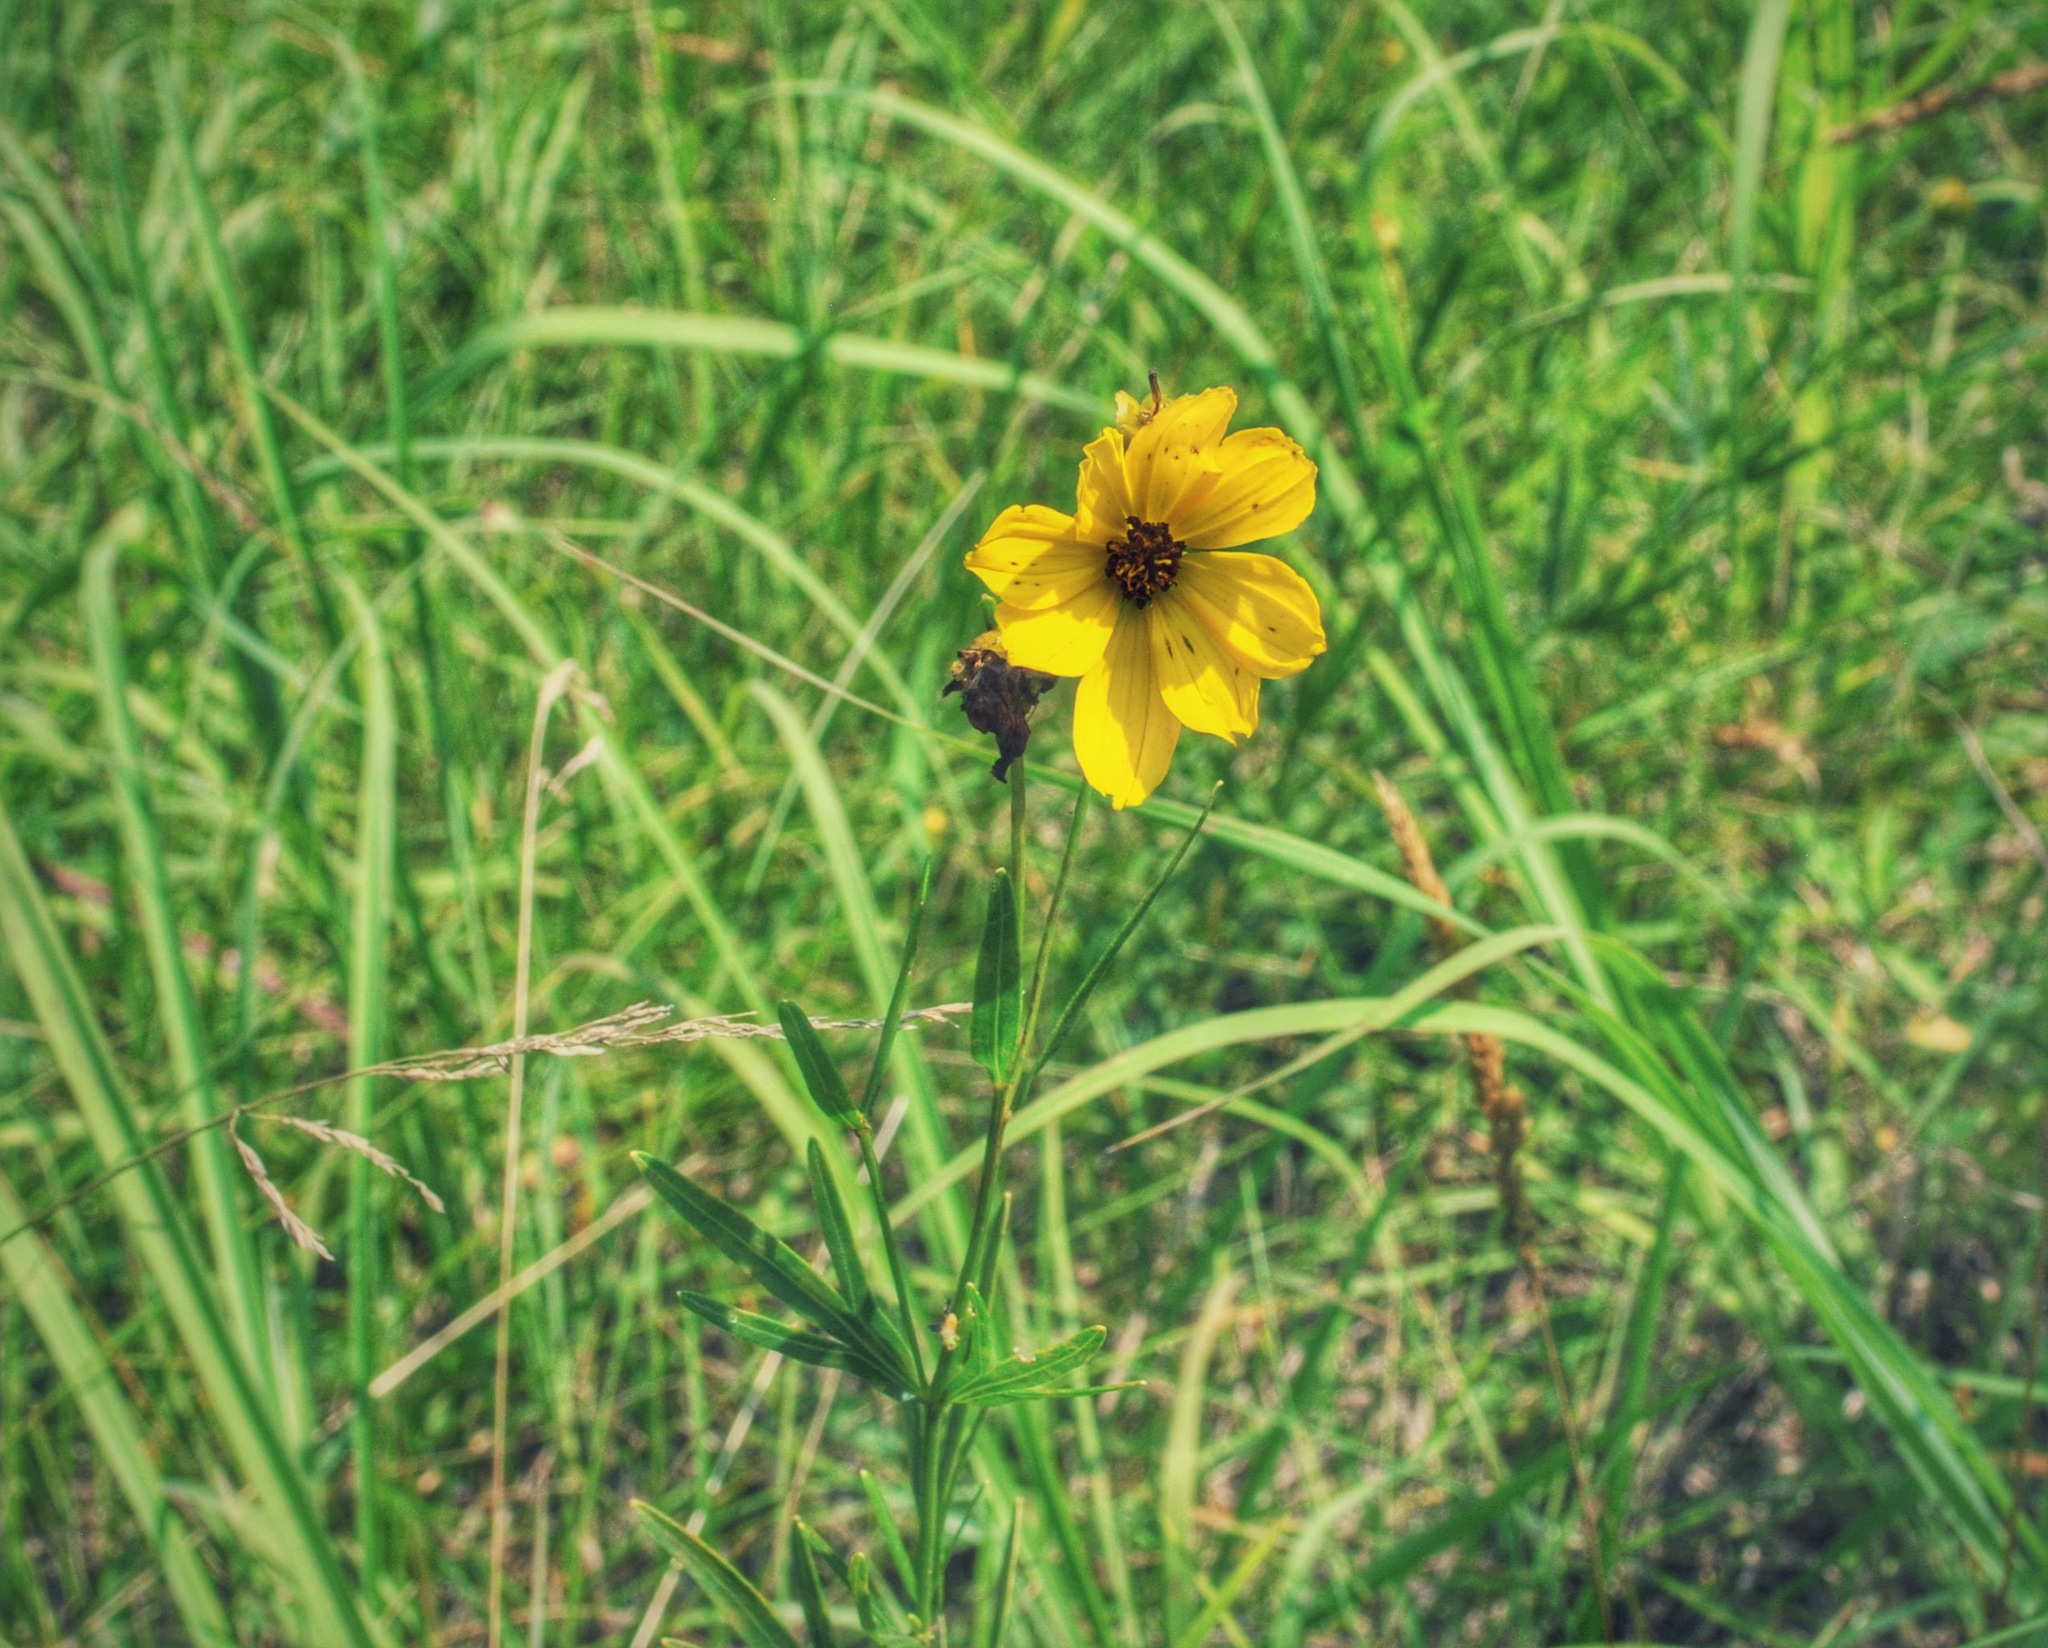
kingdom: Plantae
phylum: Tracheophyta
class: Magnoliopsida
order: Asterales
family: Asteraceae
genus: Coreopsis
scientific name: Coreopsis palmata
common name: Prairie coreopsis
